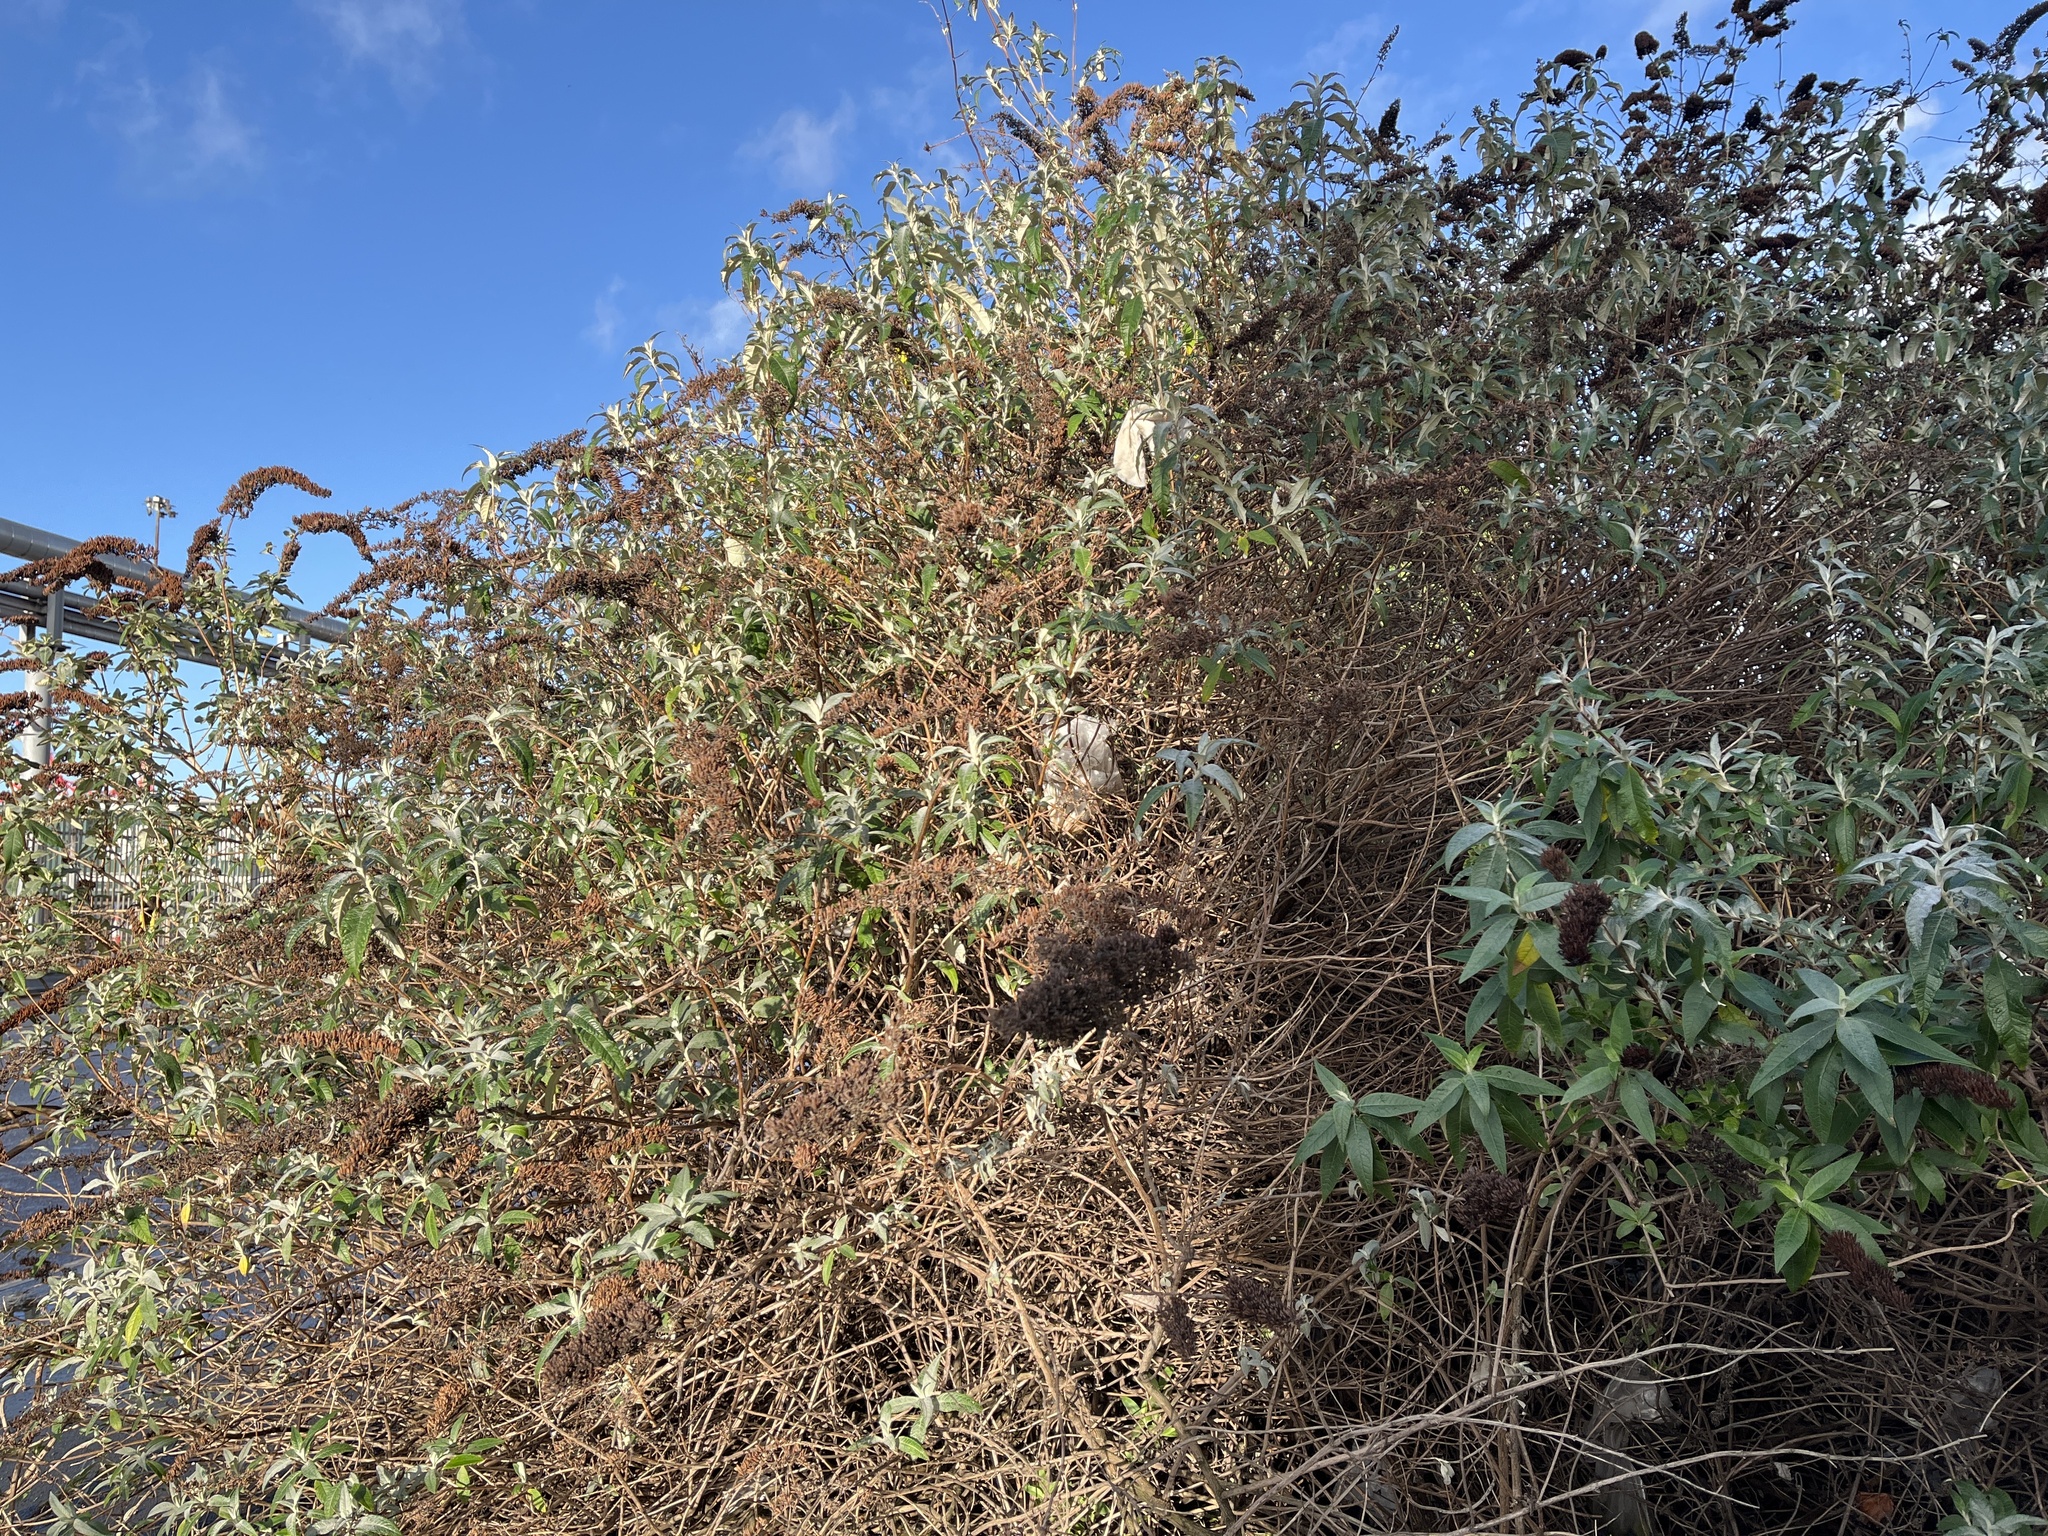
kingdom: Plantae
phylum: Tracheophyta
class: Magnoliopsida
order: Lamiales
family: Scrophulariaceae
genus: Buddleja
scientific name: Buddleja davidii
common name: Butterfly-bush
